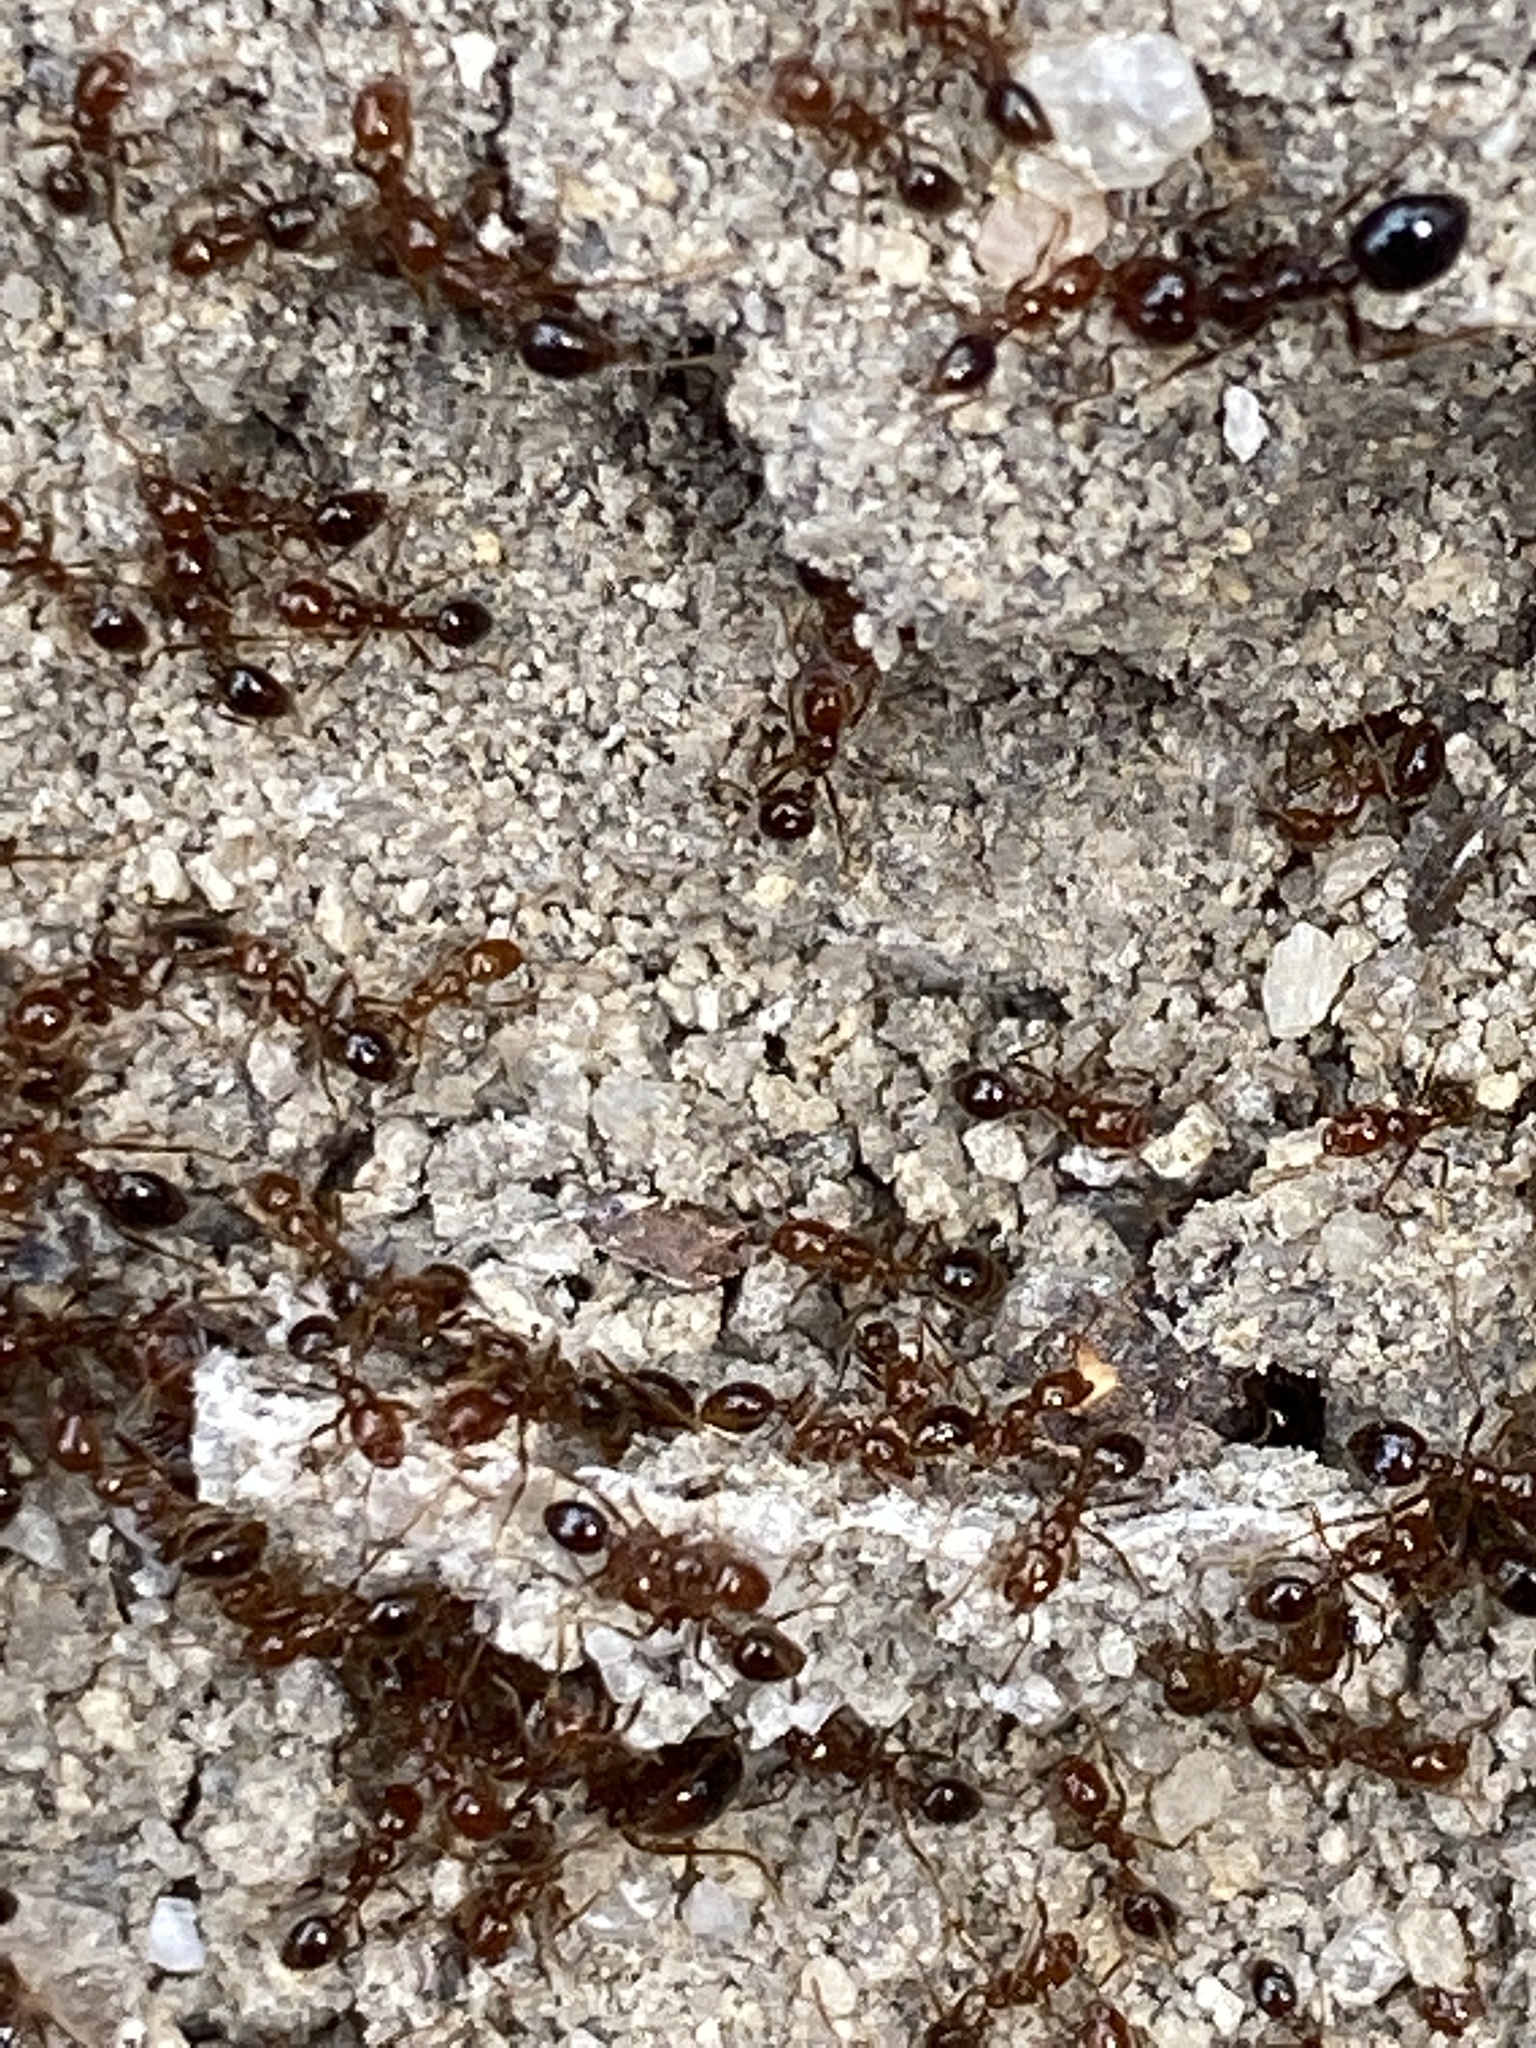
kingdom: Animalia
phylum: Arthropoda
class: Insecta
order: Hymenoptera
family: Formicidae
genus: Solenopsis
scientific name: Solenopsis invicta
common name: Red imported fire ant
